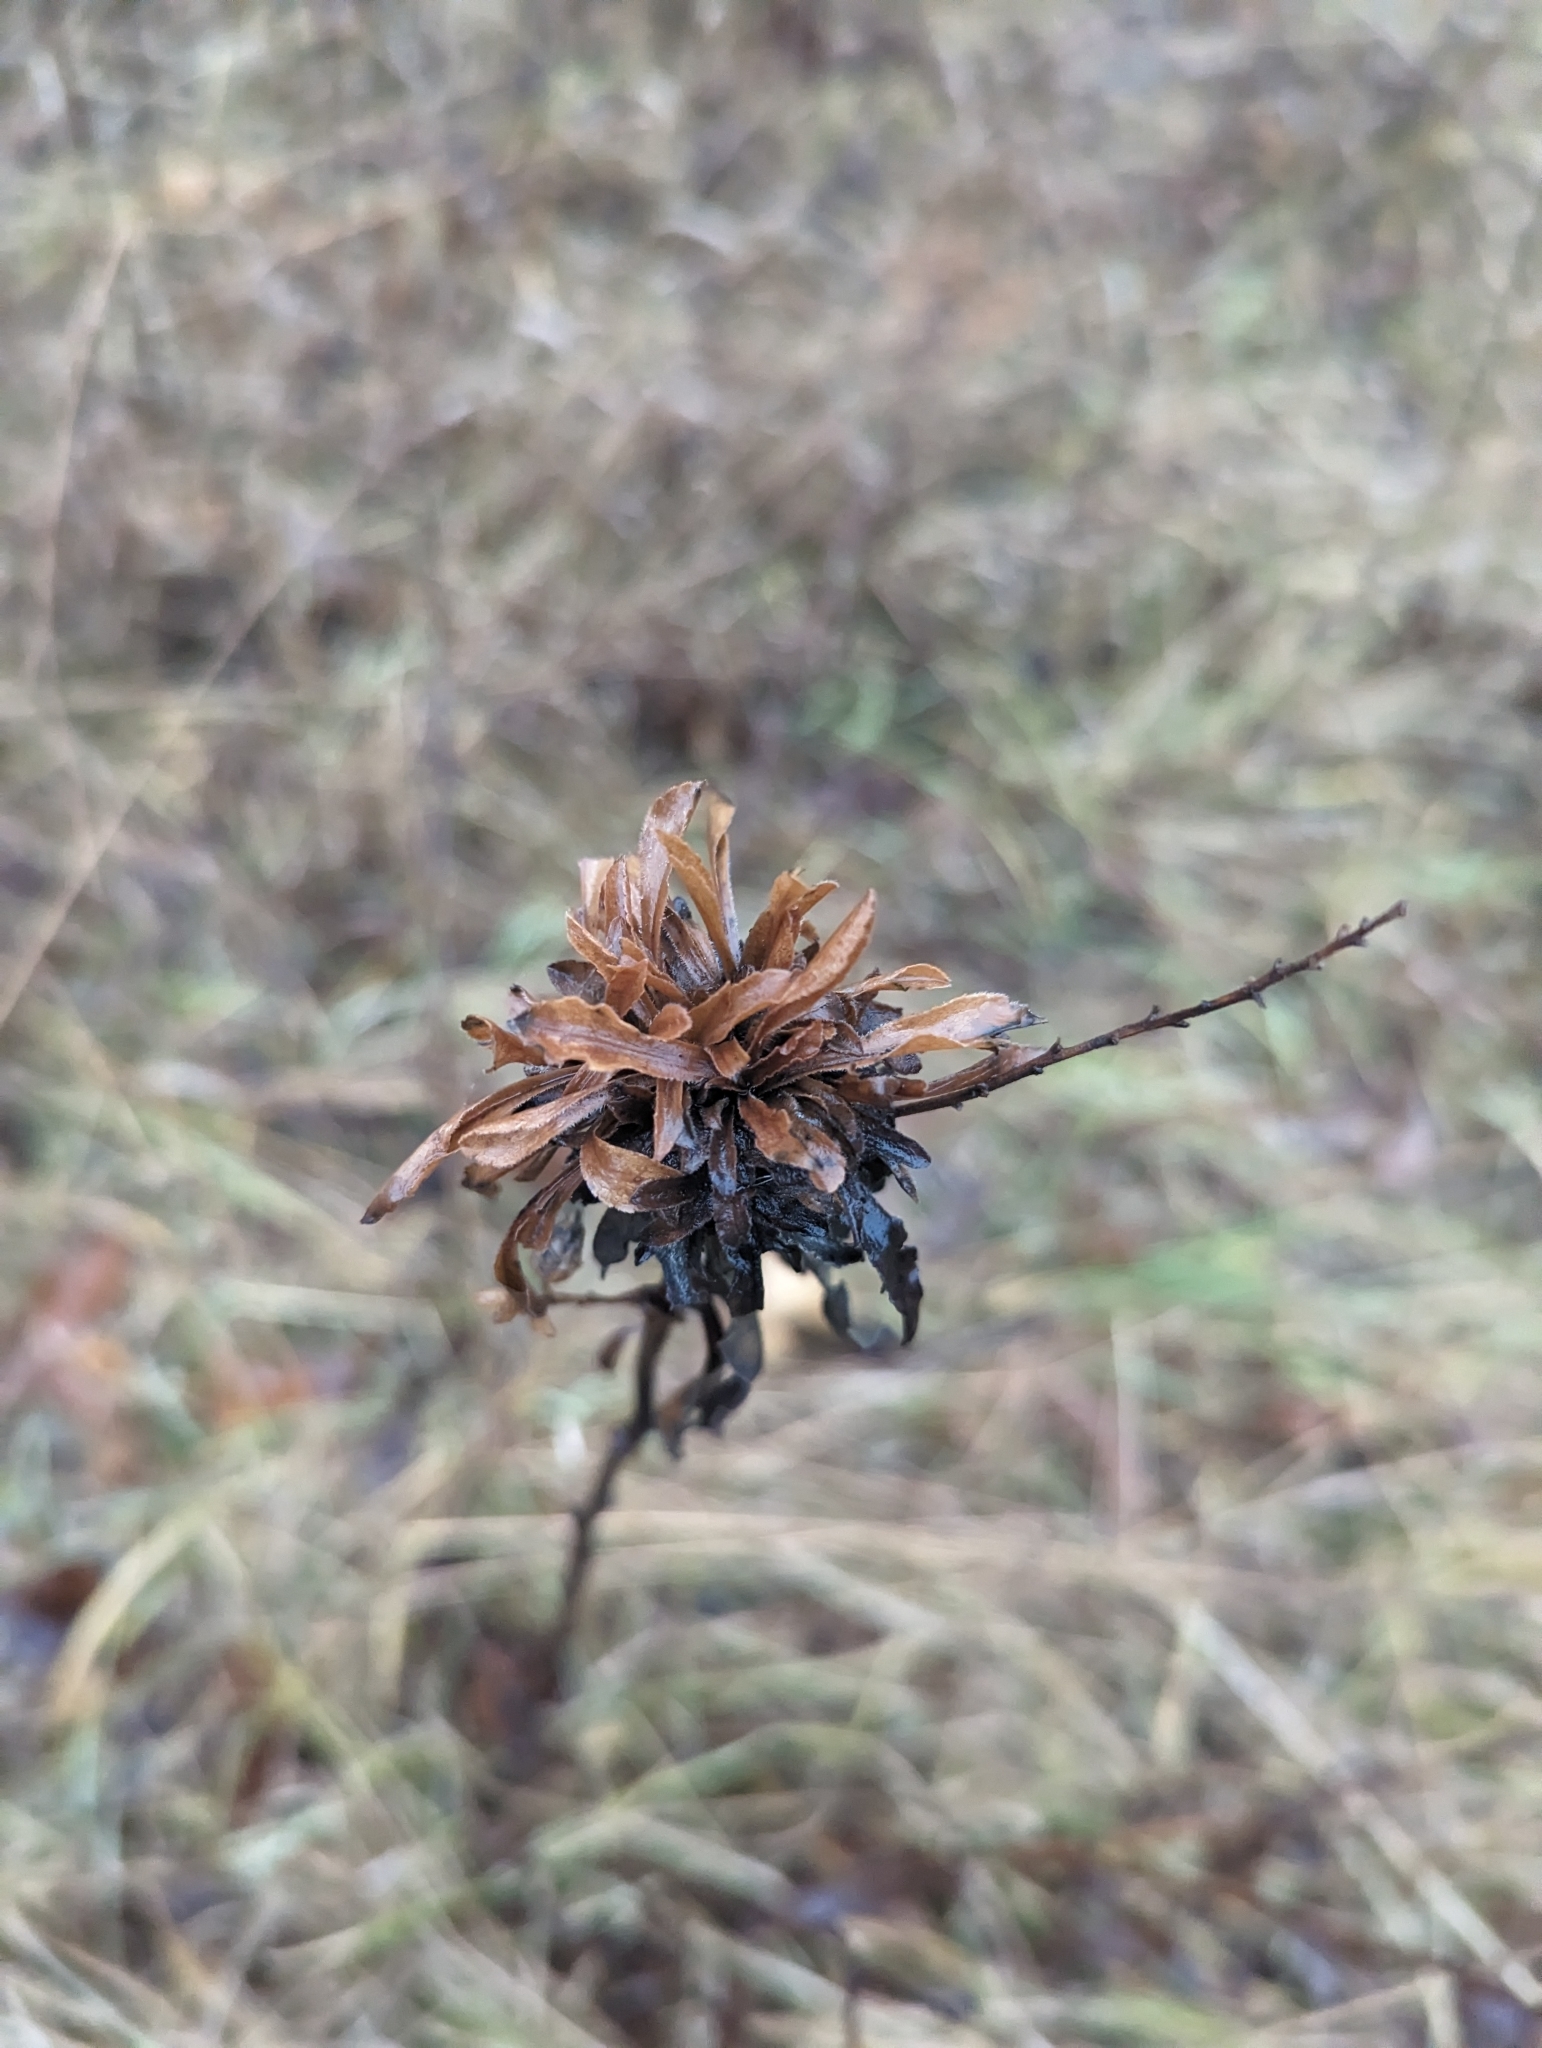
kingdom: Animalia
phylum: Arthropoda
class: Insecta
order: Diptera
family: Cecidomyiidae
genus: Rhopalomyia
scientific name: Rhopalomyia solidaginis
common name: Goldenrod bunch gall midge
